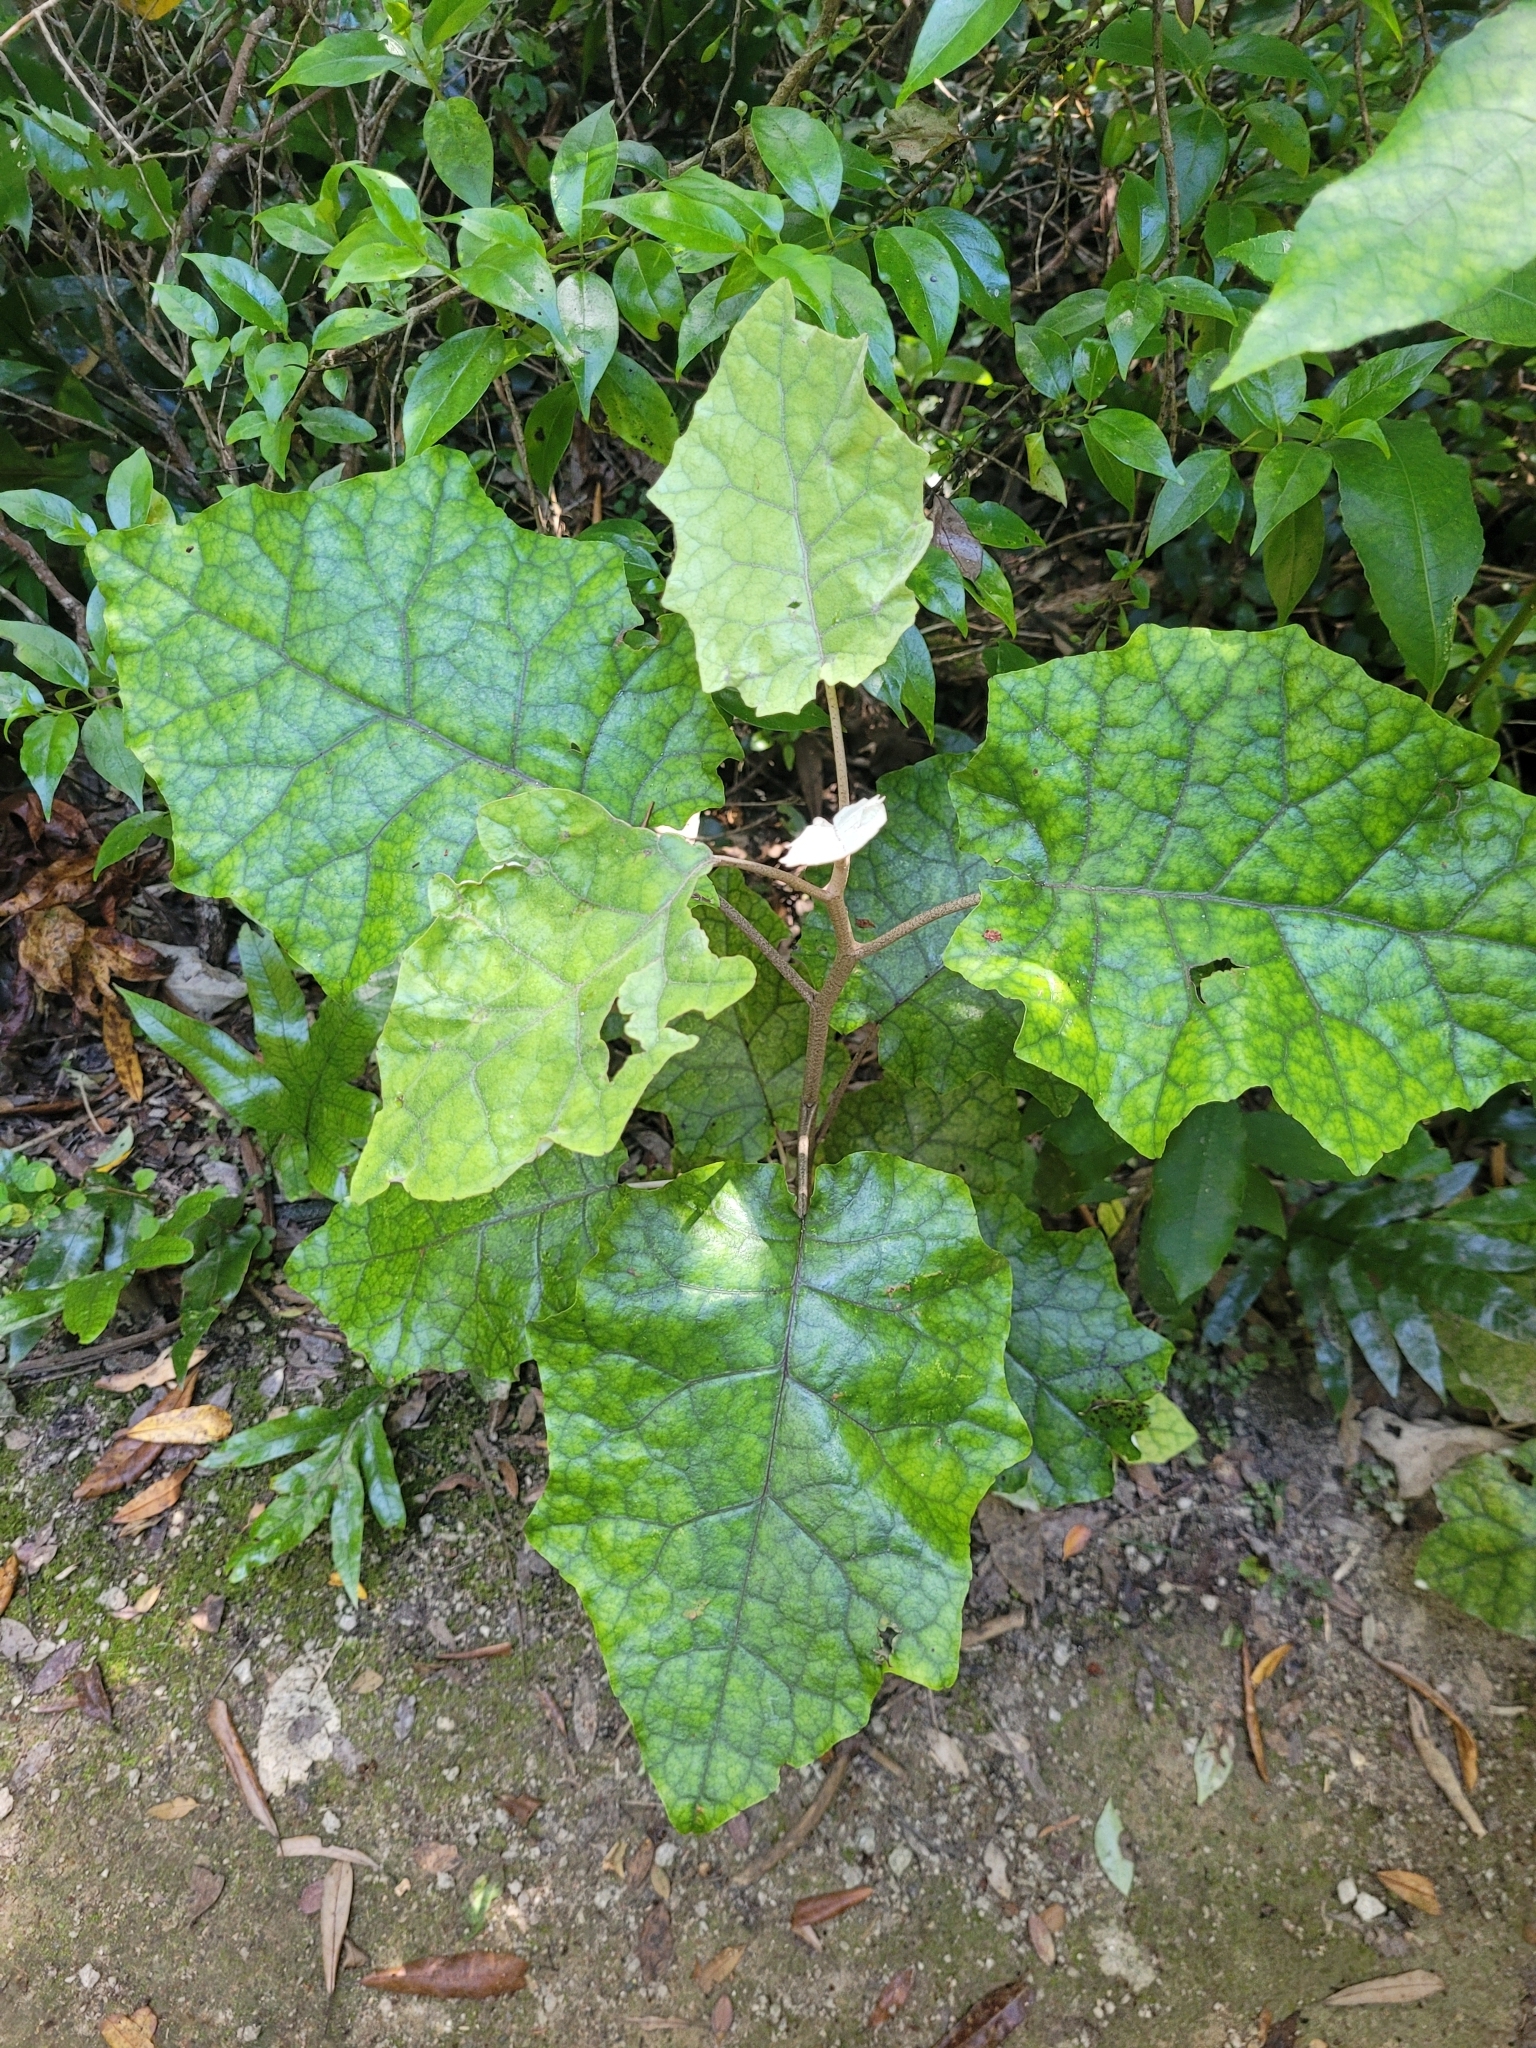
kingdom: Plantae
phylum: Tracheophyta
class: Magnoliopsida
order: Asterales
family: Asteraceae
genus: Brachyglottis
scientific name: Brachyglottis repanda
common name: Hedge ragwort
